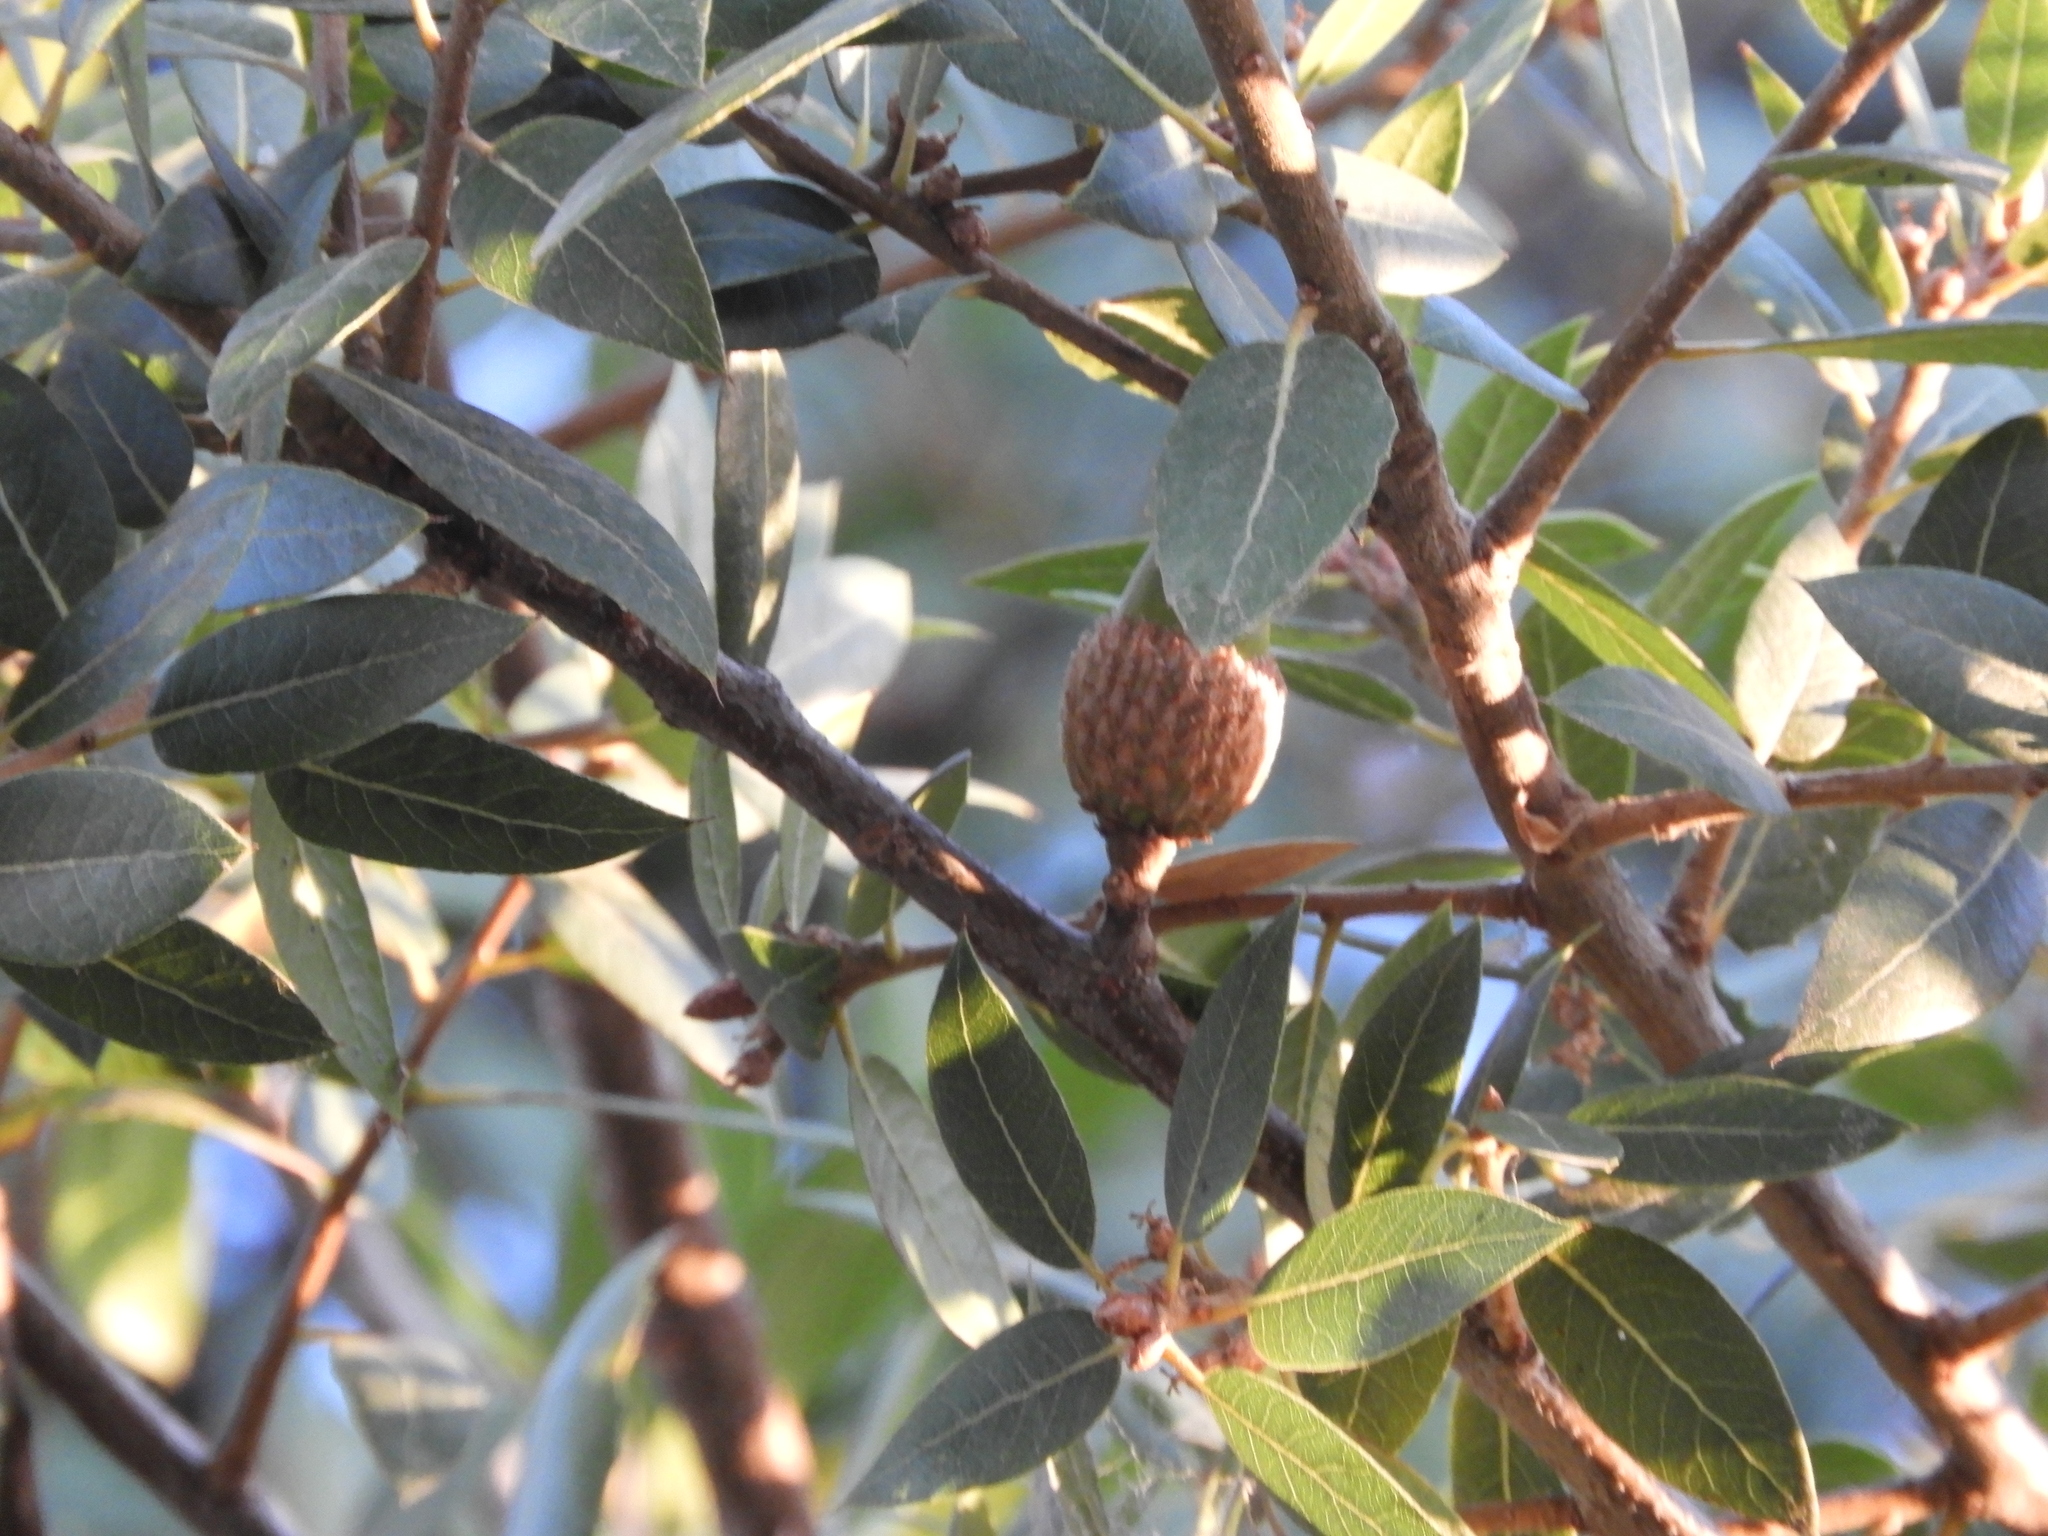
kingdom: Plantae
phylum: Tracheophyta
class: Magnoliopsida
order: Fagales
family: Fagaceae
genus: Quercus
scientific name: Quercus wislizeni
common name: Interior live oak
